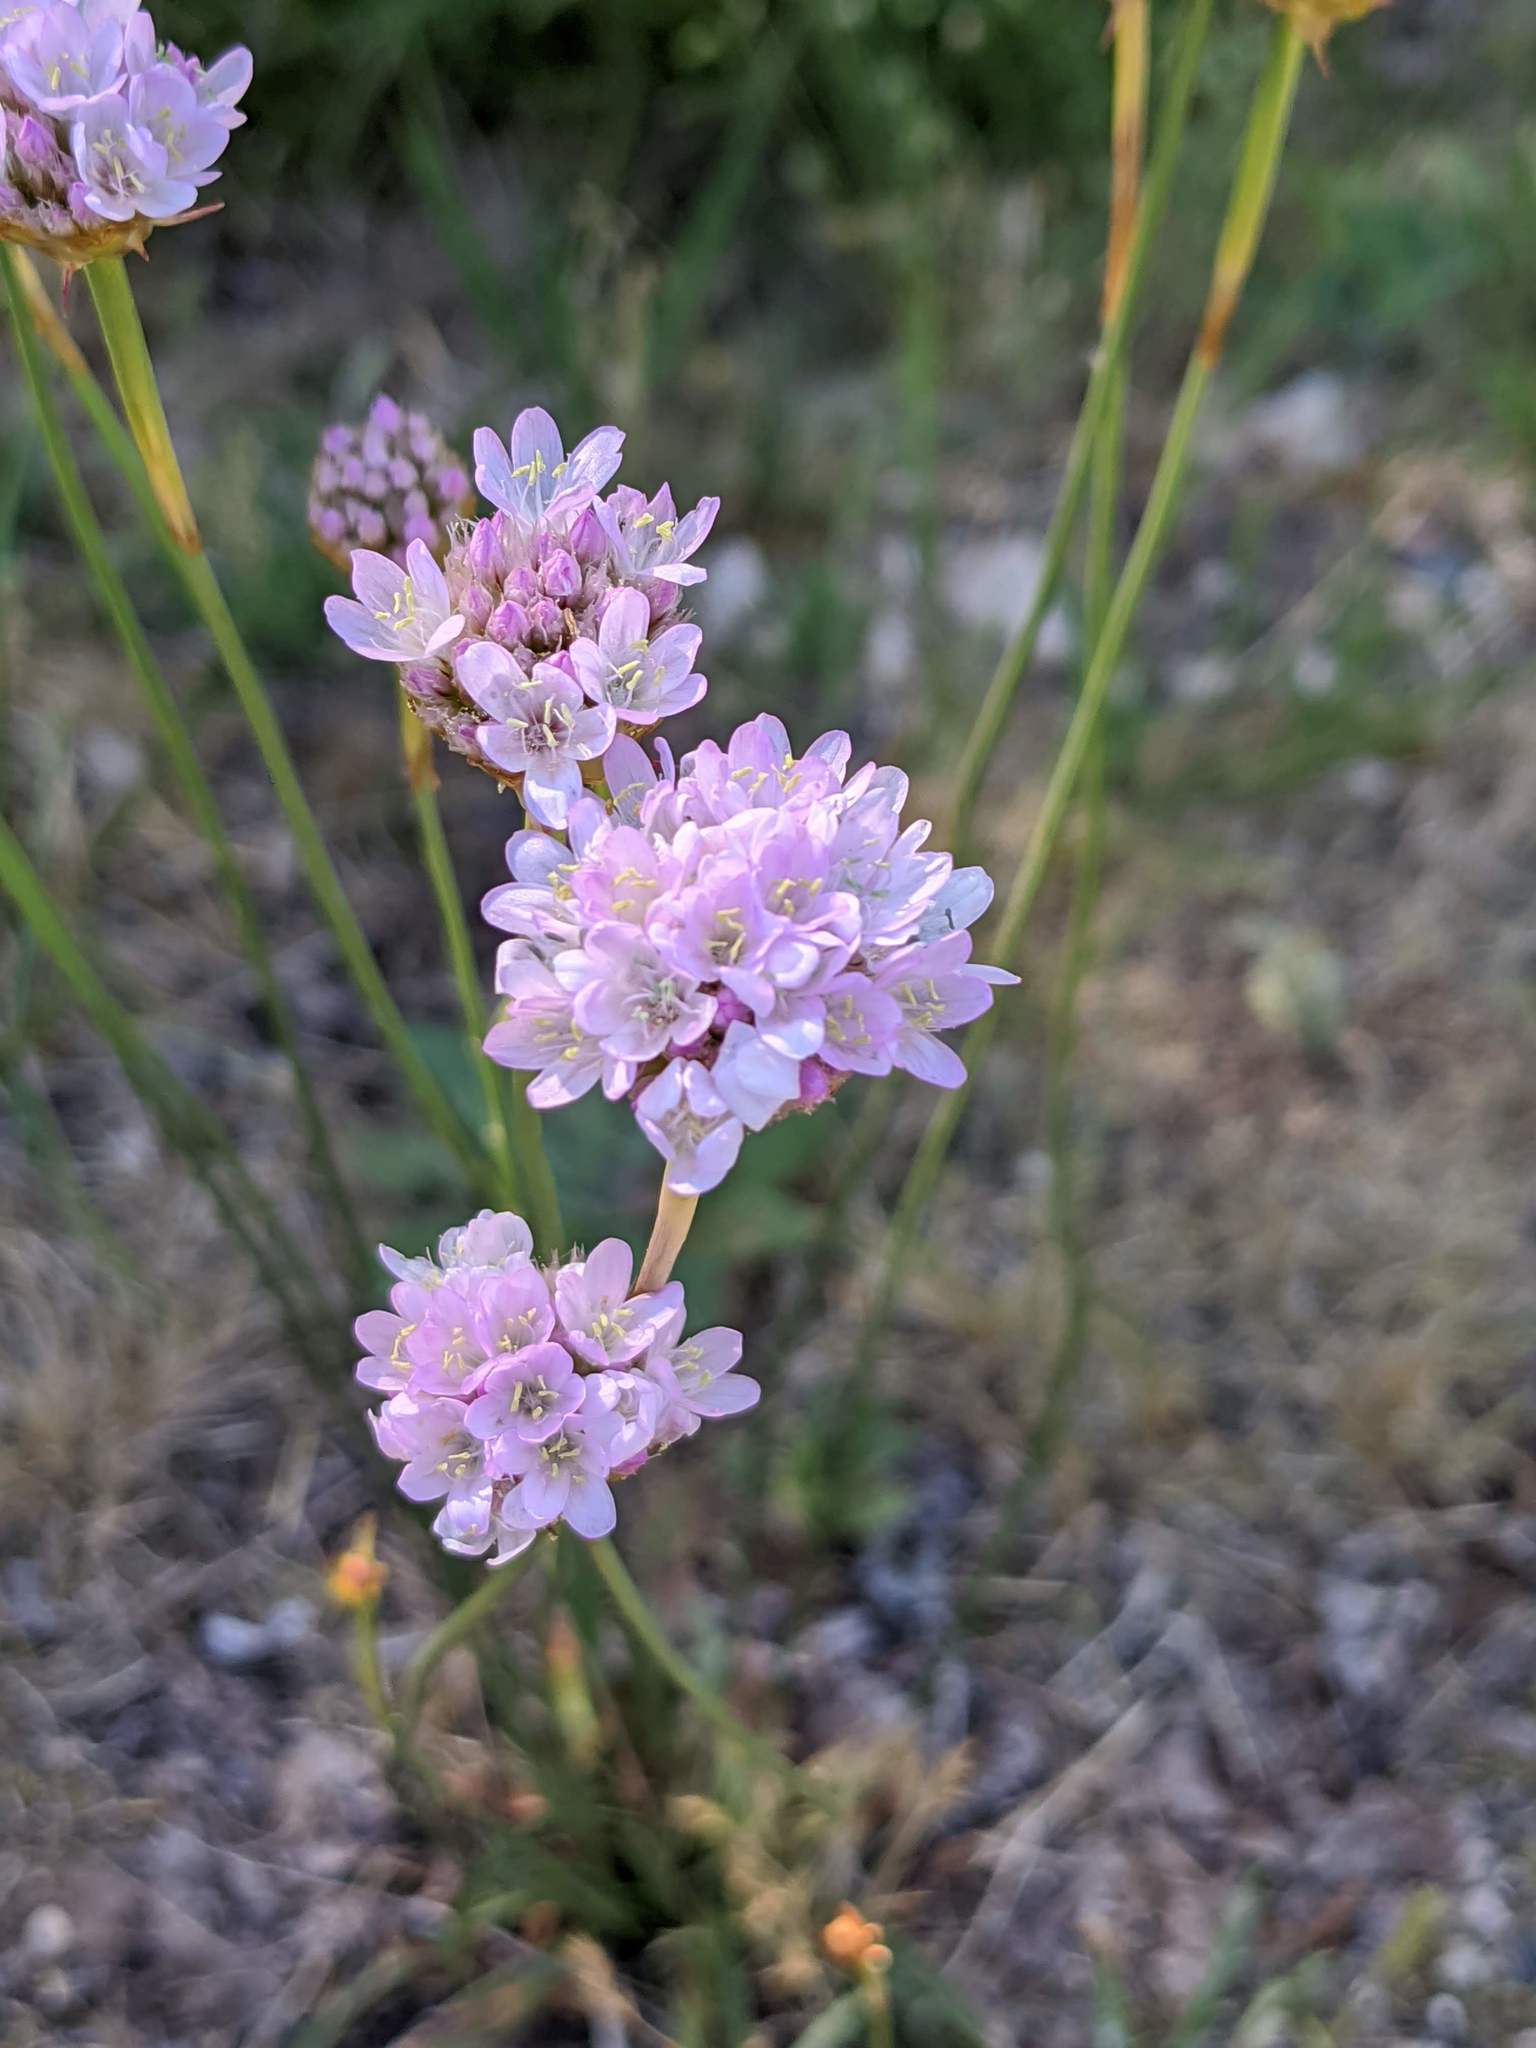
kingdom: Plantae
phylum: Tracheophyta
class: Magnoliopsida
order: Caryophyllales
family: Plumbaginaceae
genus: Armeria
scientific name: Armeria arenaria
